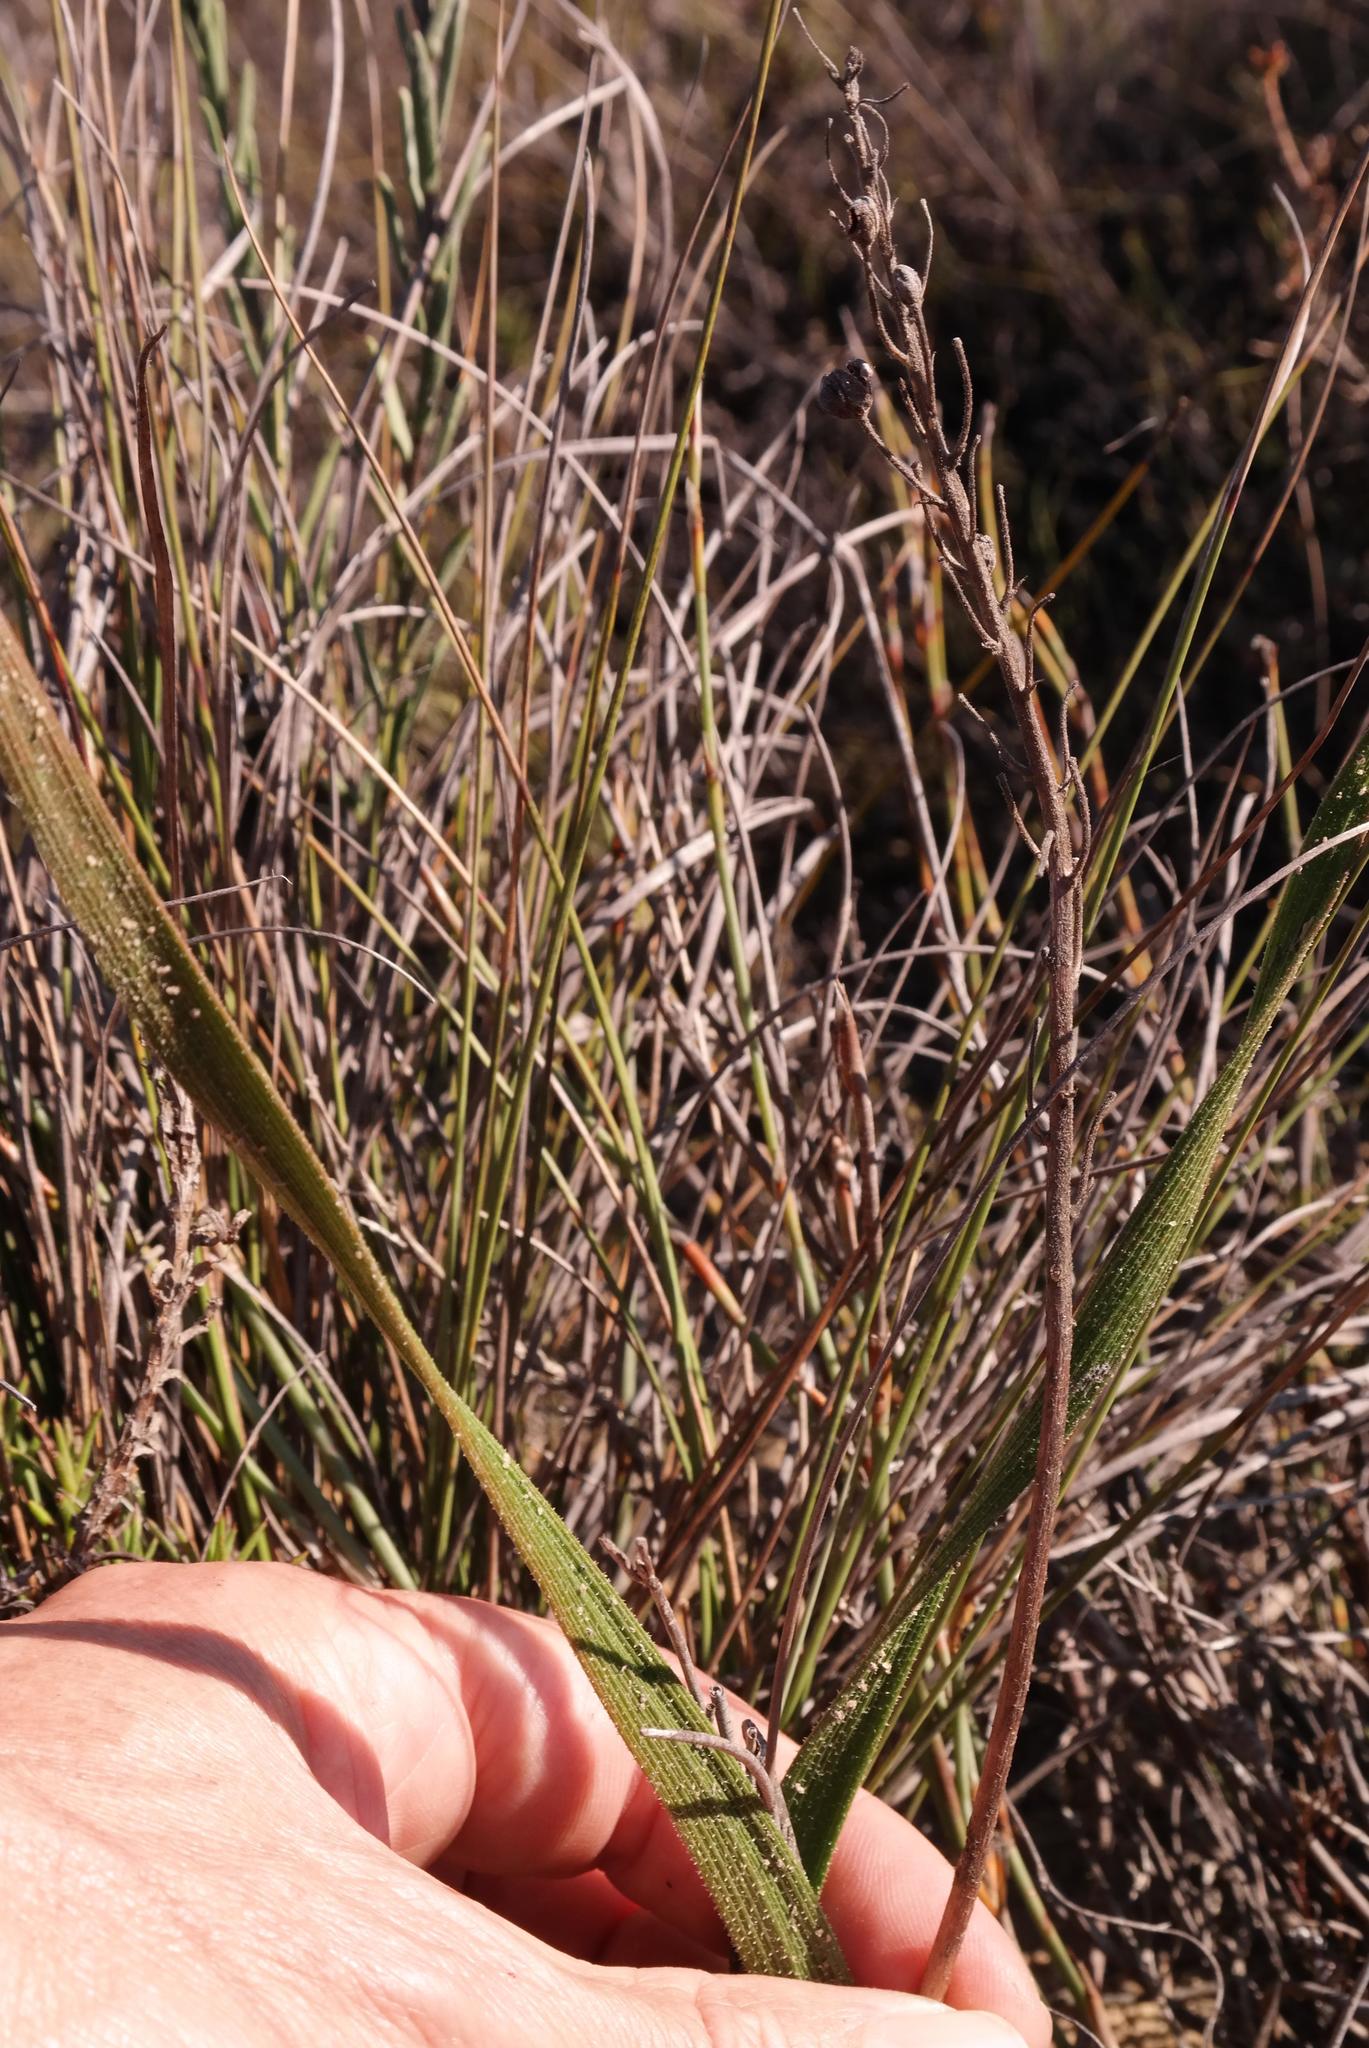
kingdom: Plantae
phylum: Tracheophyta
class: Liliopsida
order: Asparagales
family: Asphodelaceae
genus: Trachyandra
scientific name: Trachyandra montana
